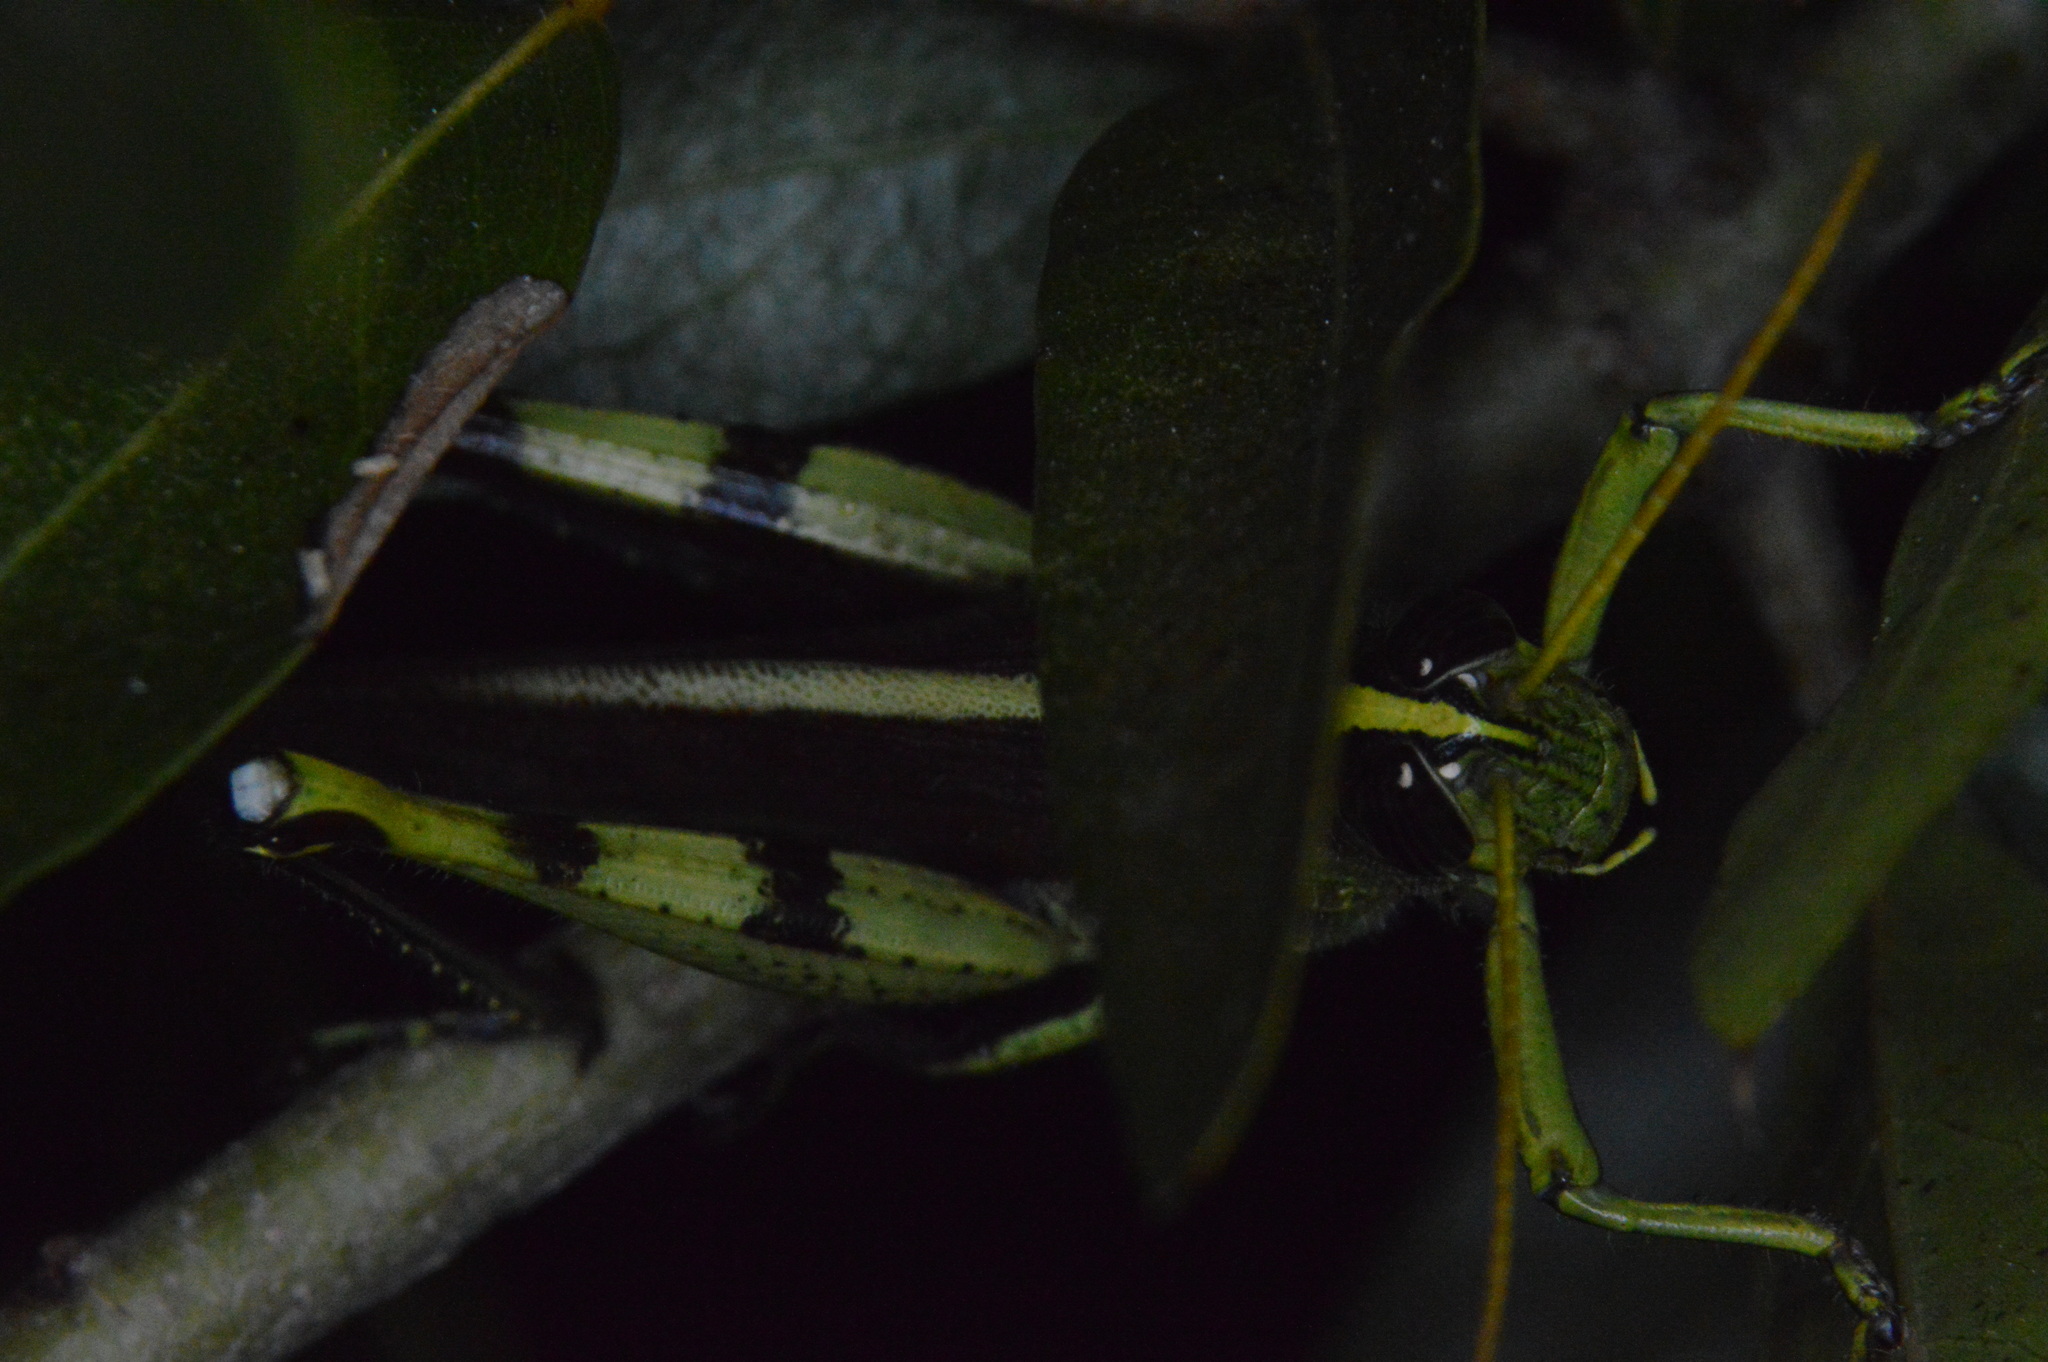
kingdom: Animalia
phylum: Arthropoda
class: Insecta
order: Orthoptera
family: Acrididae
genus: Schistocerca
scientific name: Schistocerca obscura
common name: Obscure bird grasshopper
